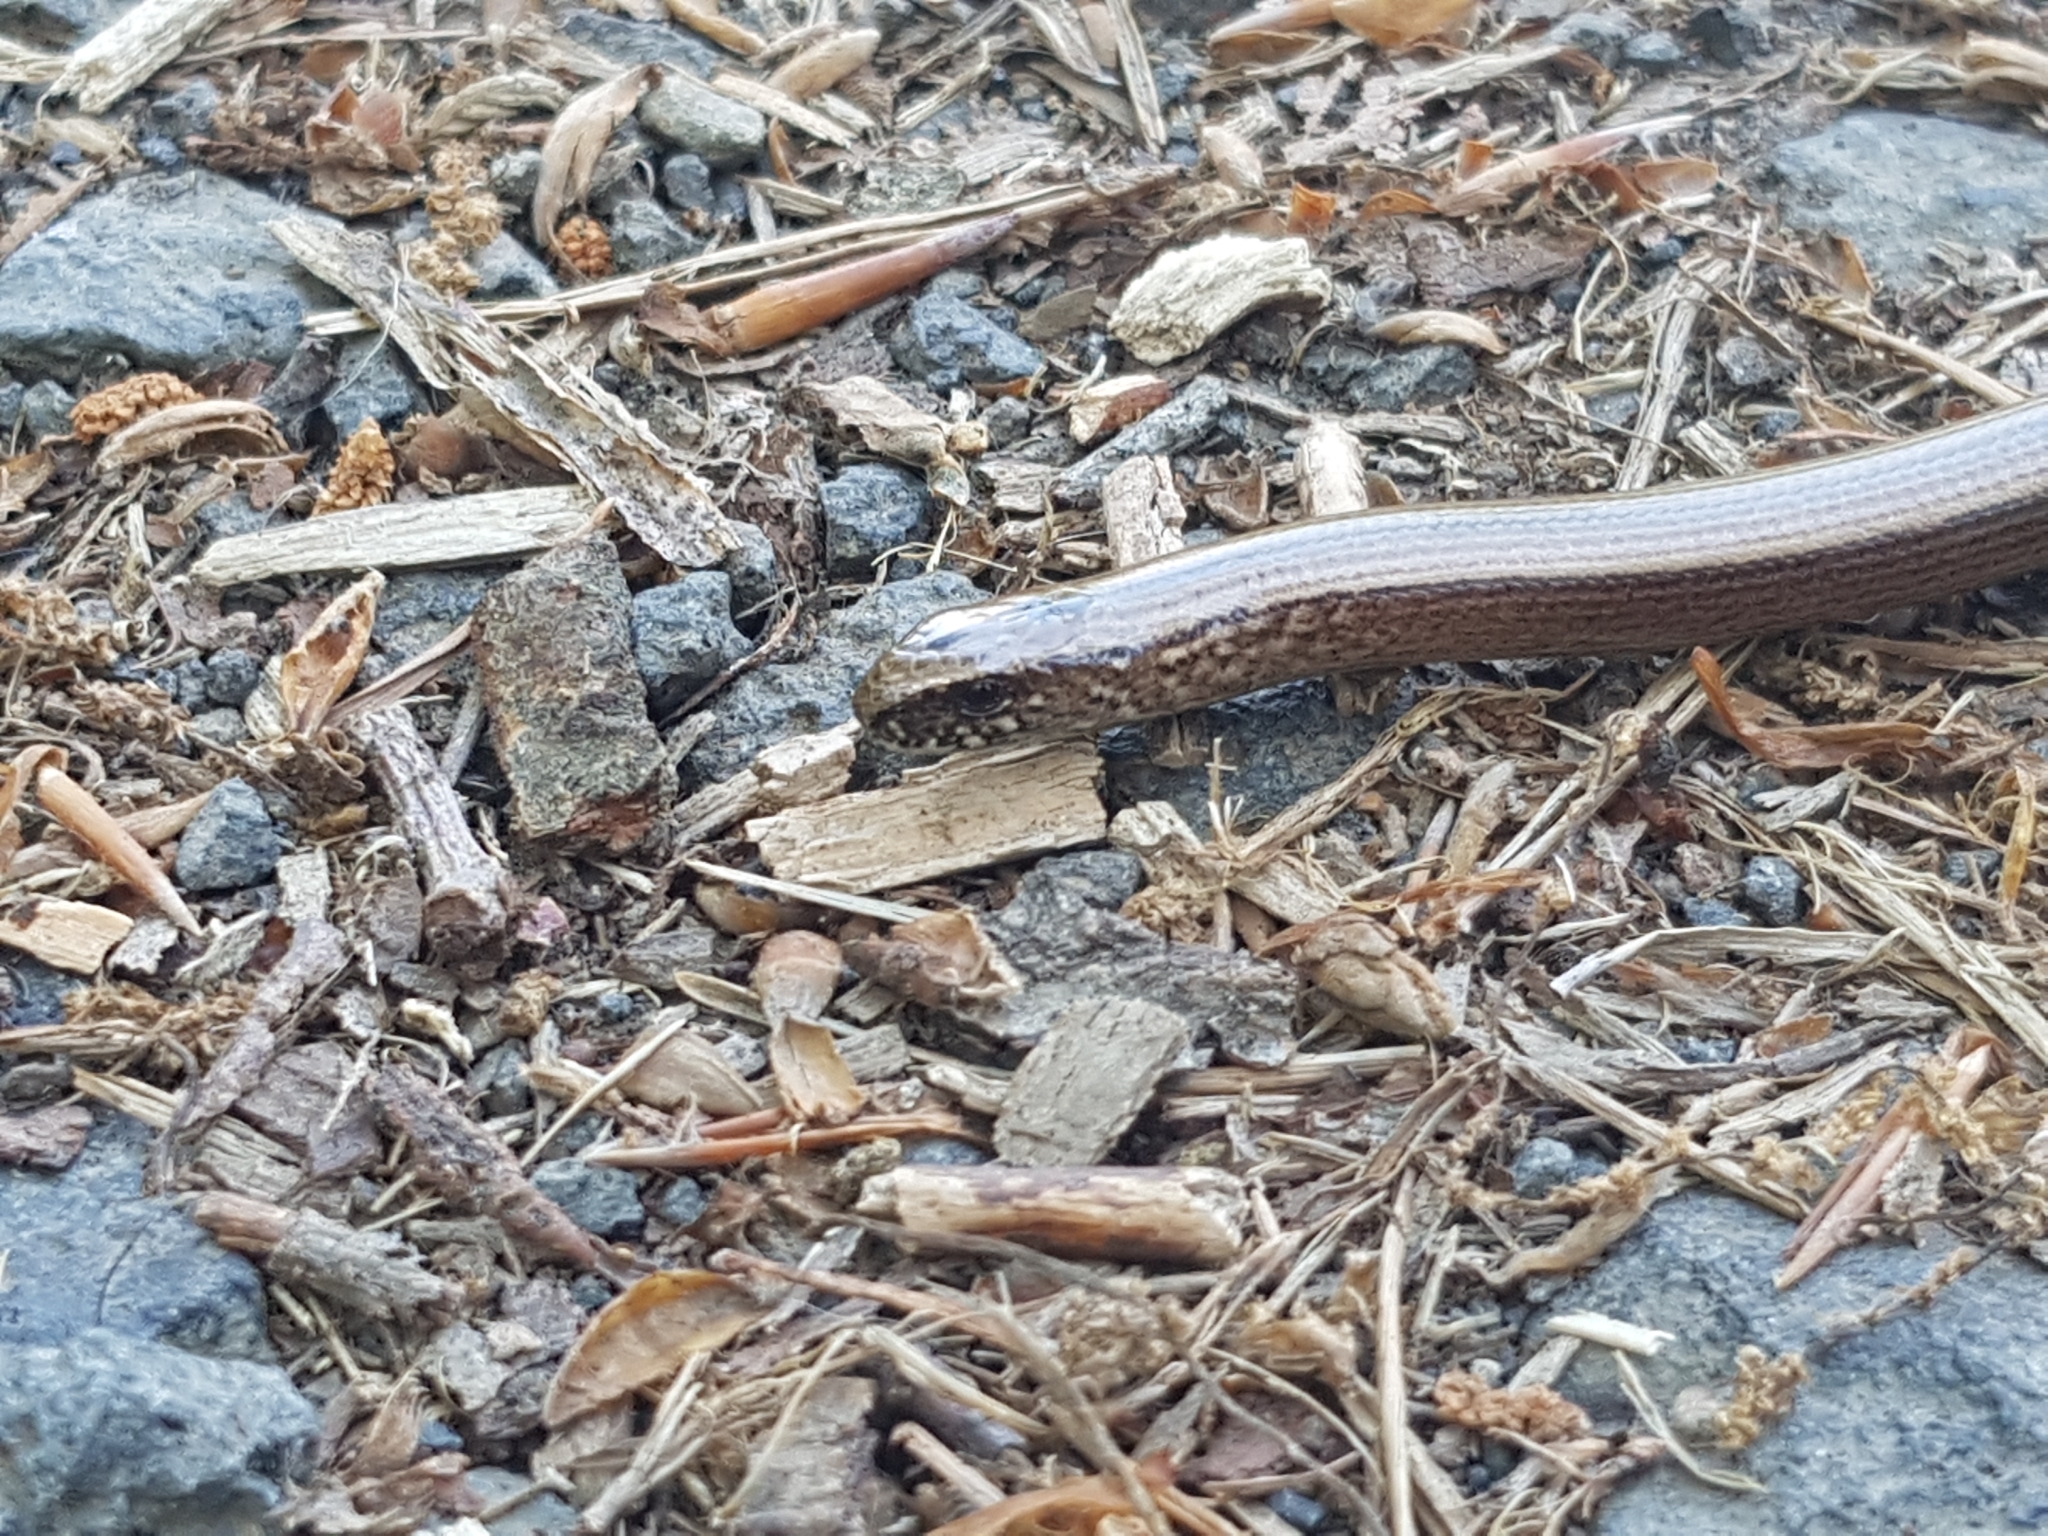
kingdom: Animalia
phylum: Chordata
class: Squamata
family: Anguidae
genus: Anguis
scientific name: Anguis fragilis
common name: Slow worm
